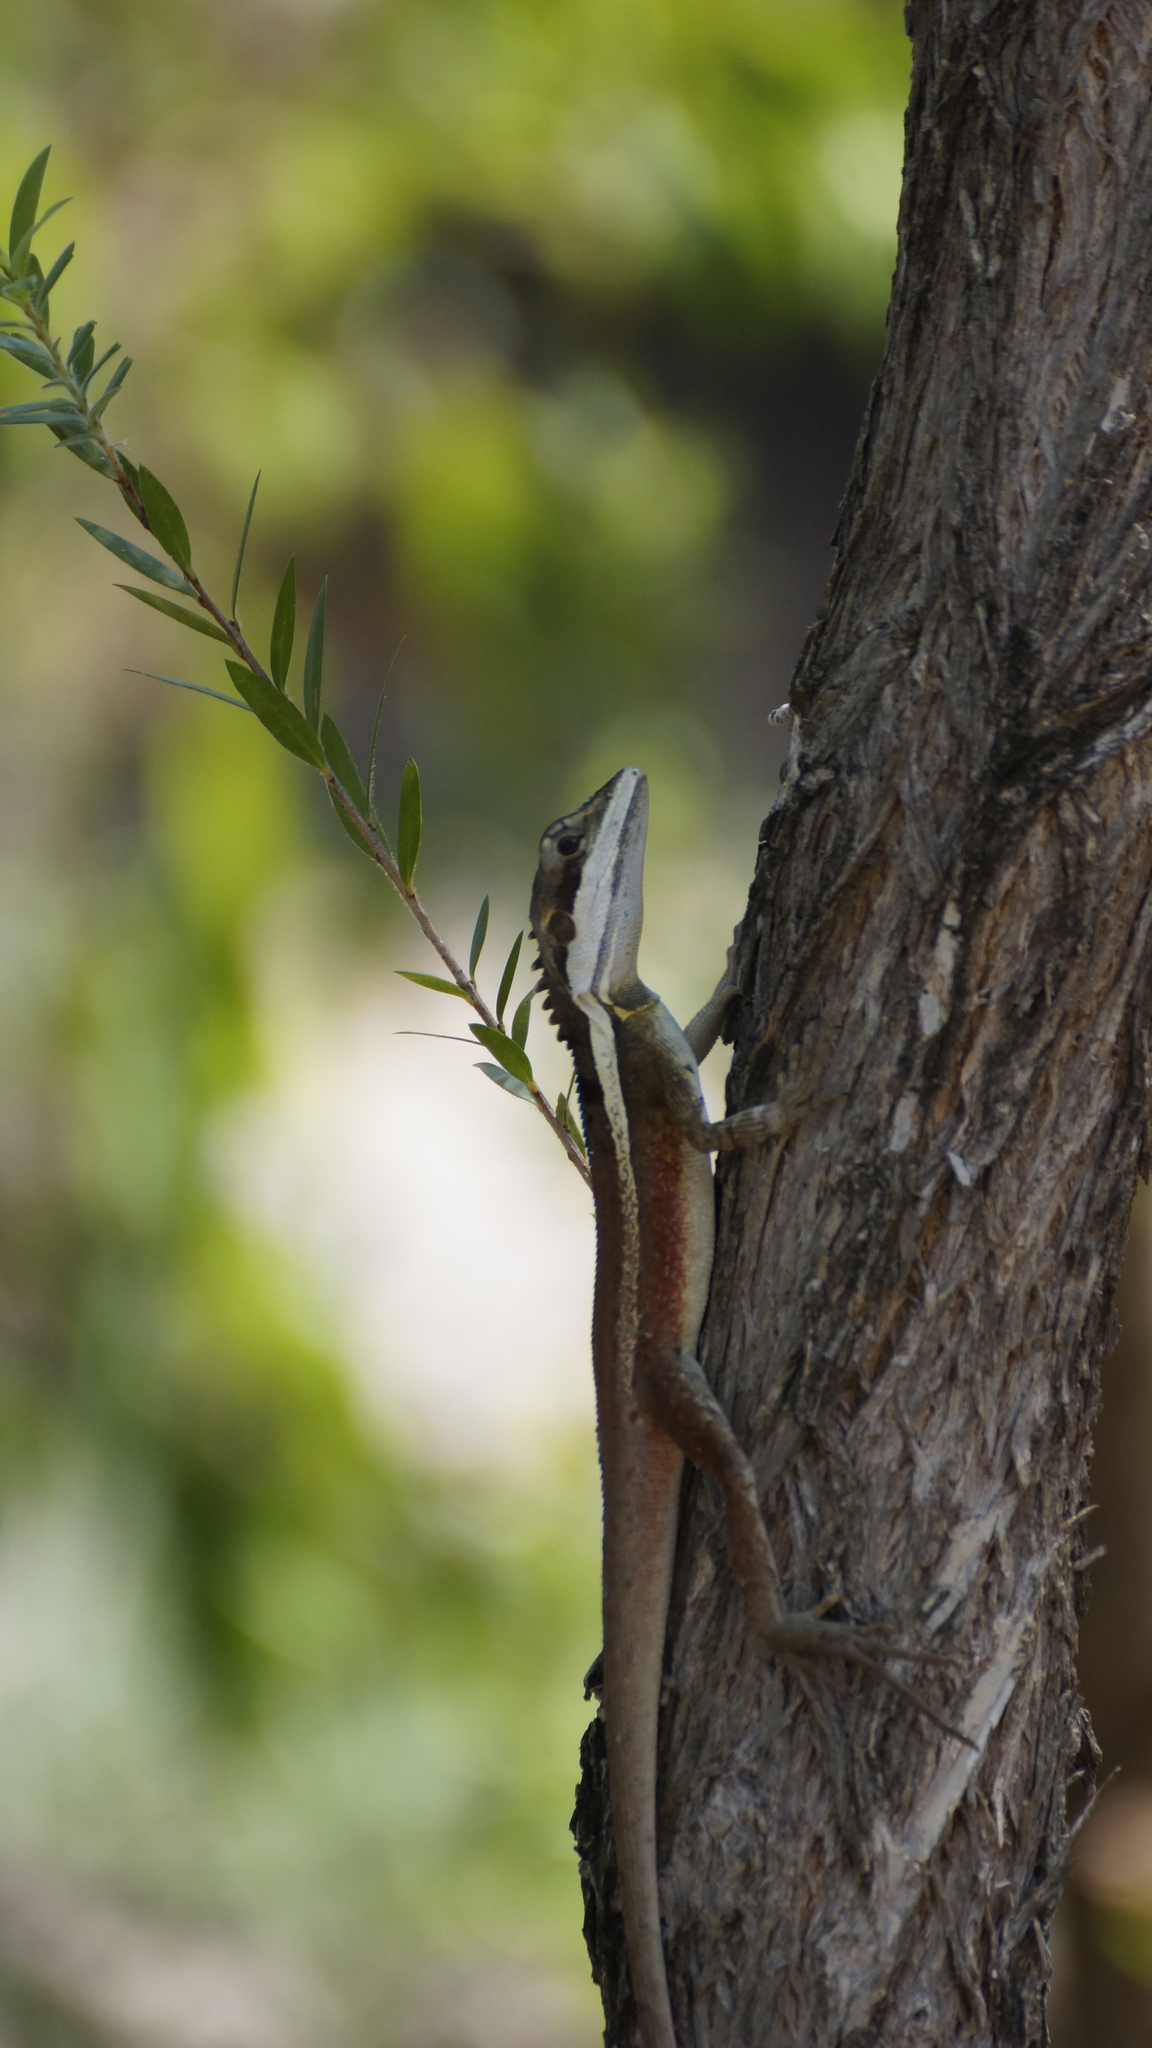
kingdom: Animalia
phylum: Chordata
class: Squamata
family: Agamidae
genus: Tropicagama
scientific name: Tropicagama temporalis
